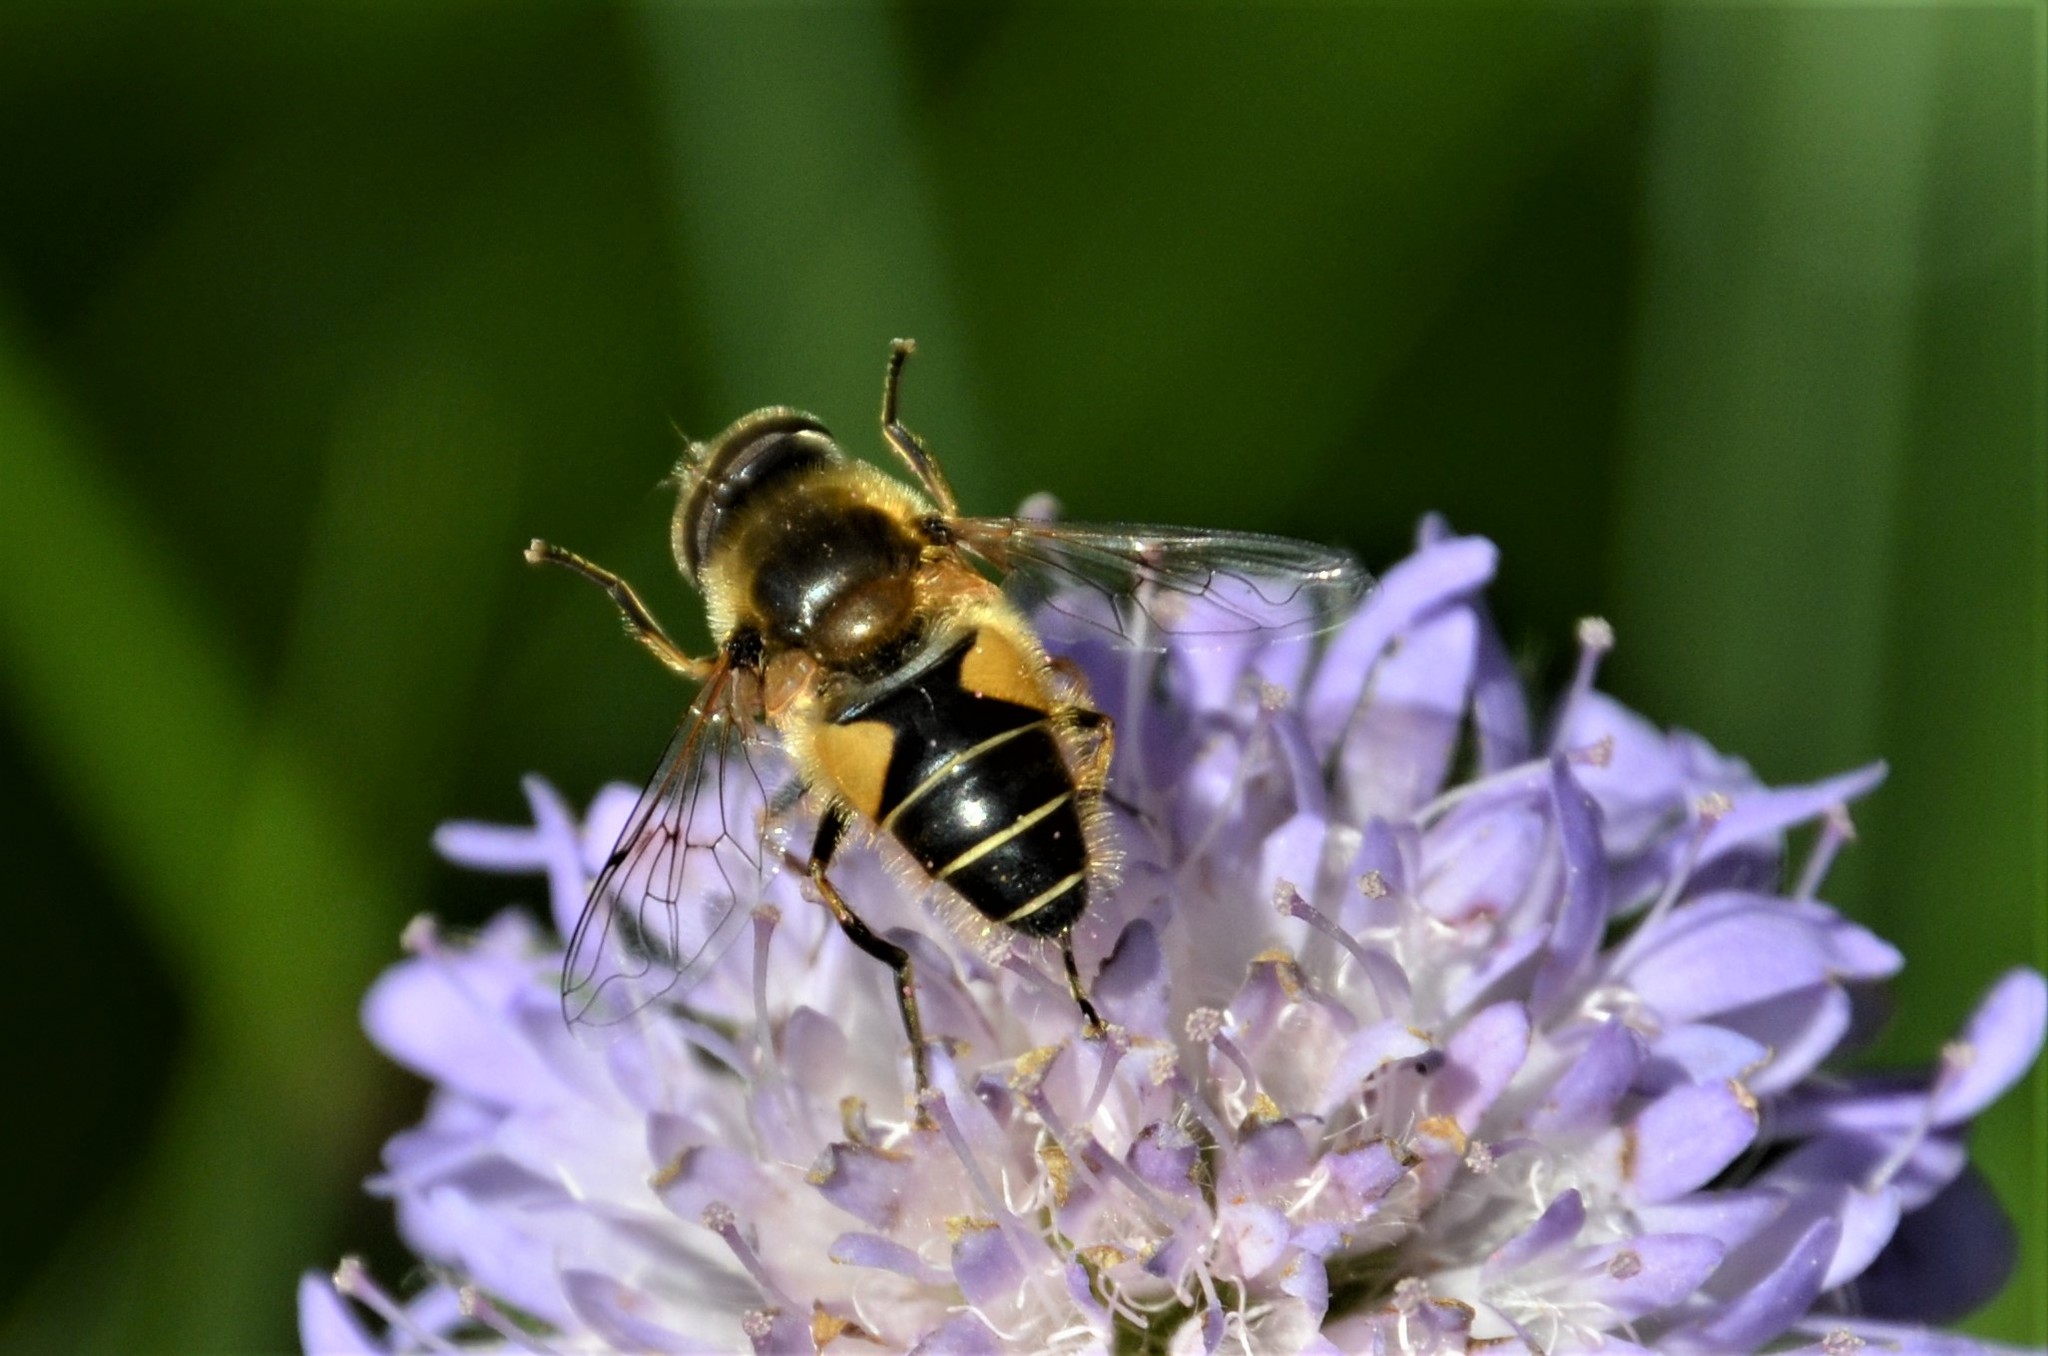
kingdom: Animalia
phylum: Arthropoda
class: Insecta
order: Diptera
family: Syrphidae
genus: Eristalis
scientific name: Eristalis arbustorum
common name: Hover fly
